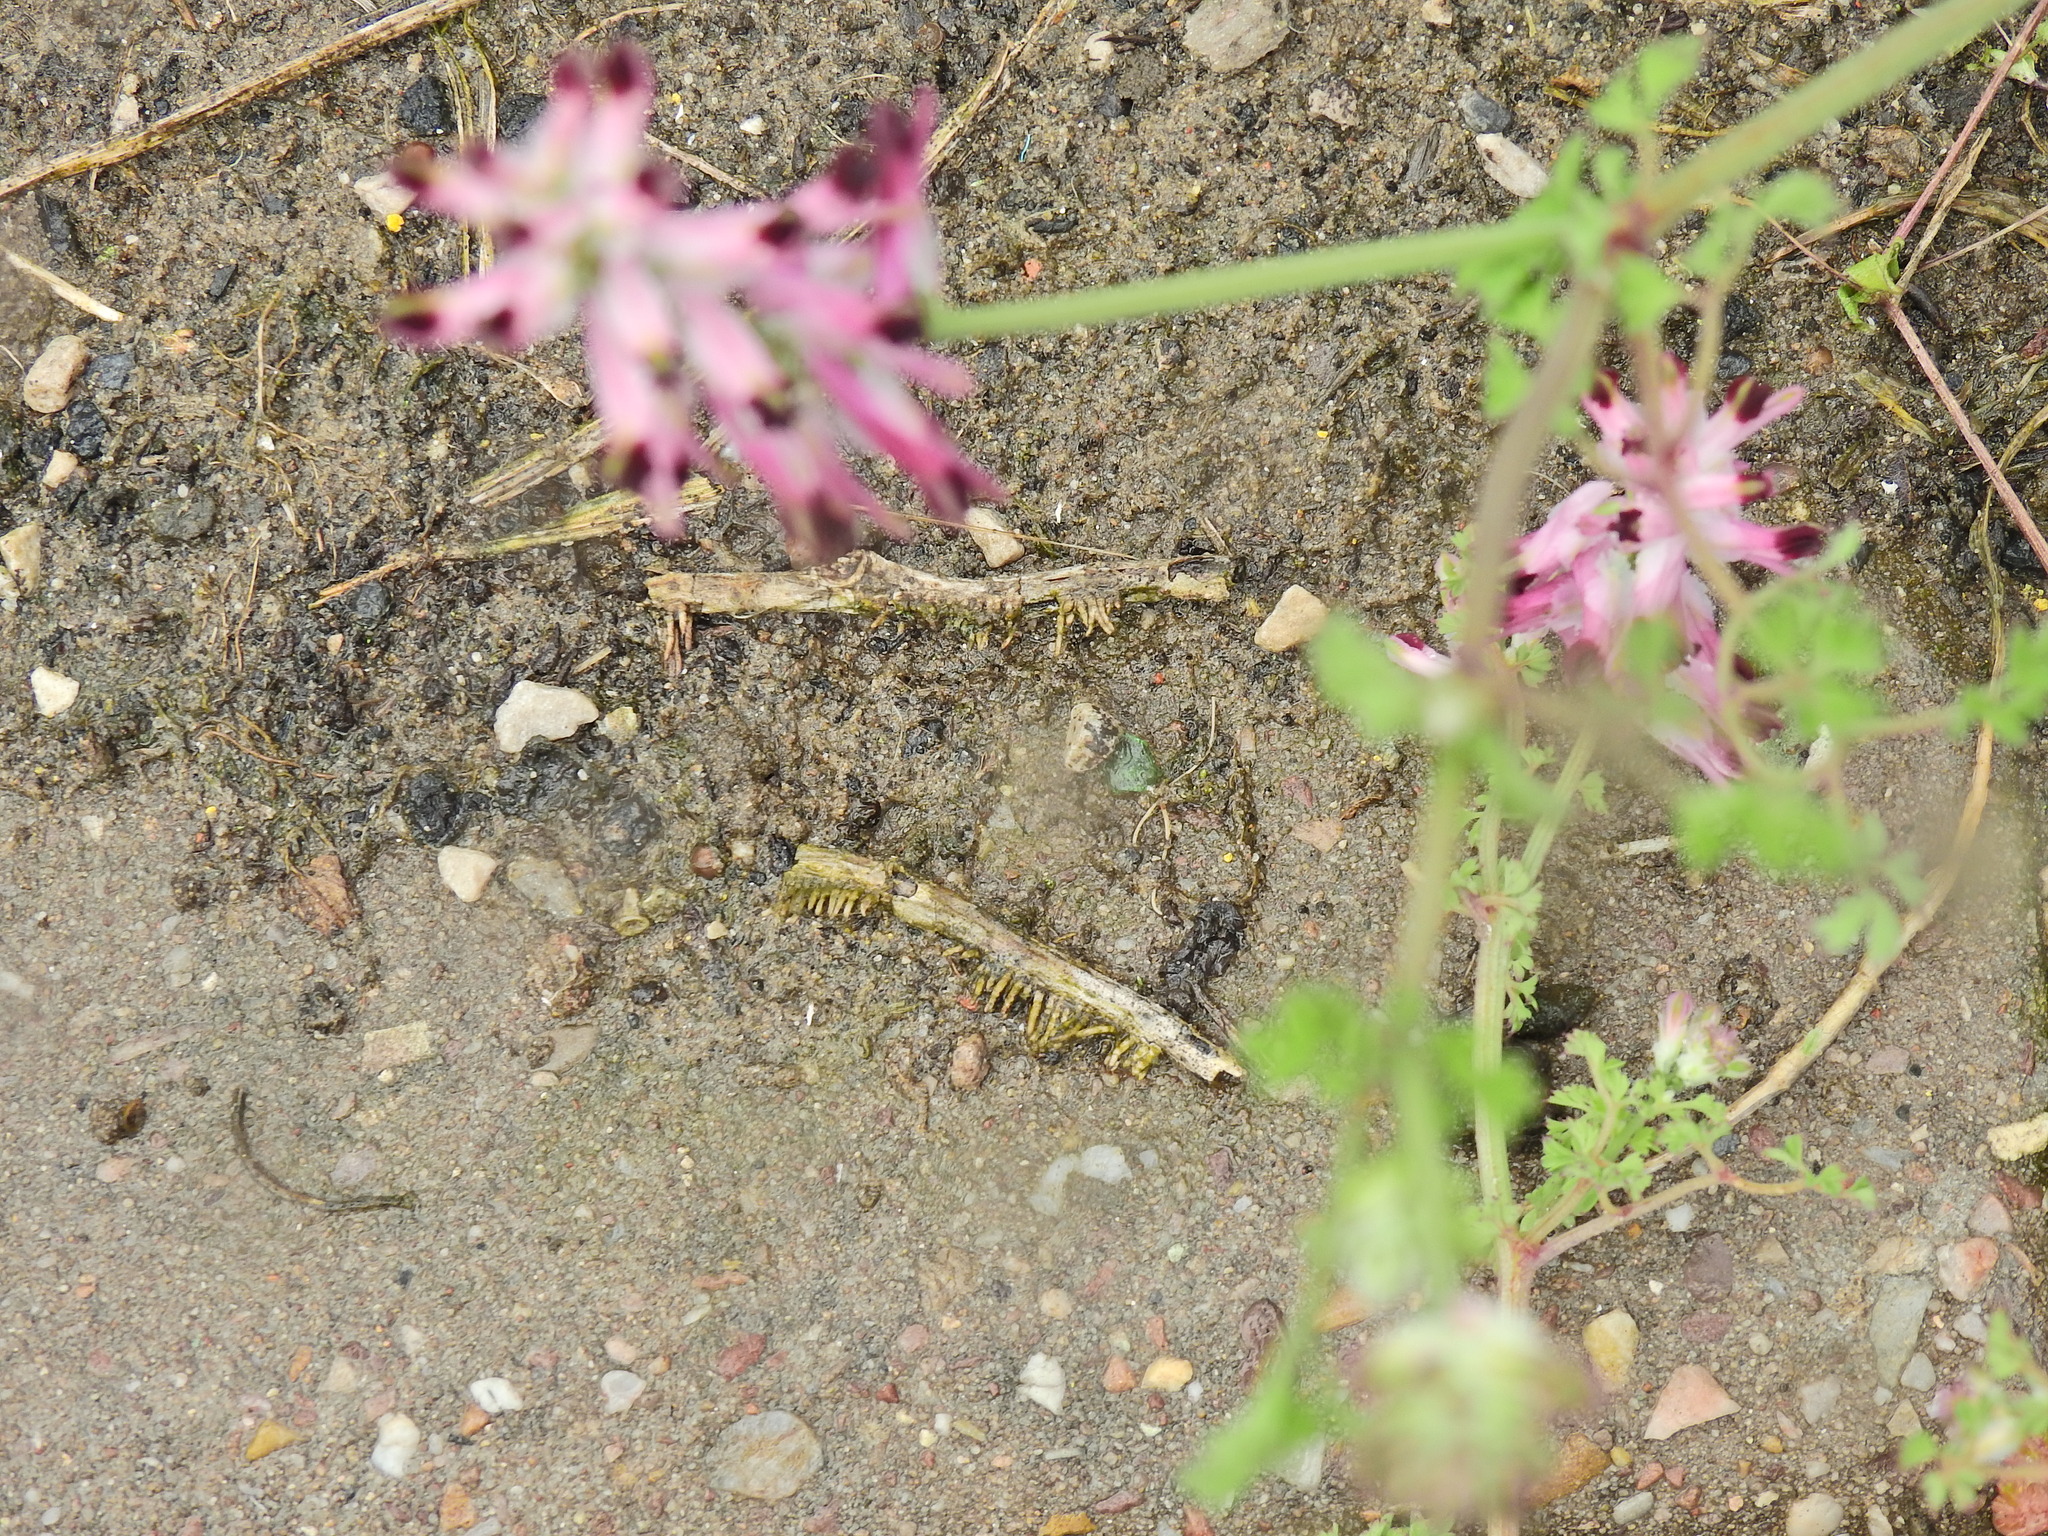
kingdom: Plantae
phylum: Tracheophyta
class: Magnoliopsida
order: Ranunculales
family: Papaveraceae
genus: Fumaria
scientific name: Fumaria muralis
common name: Common ramping-fumitory
